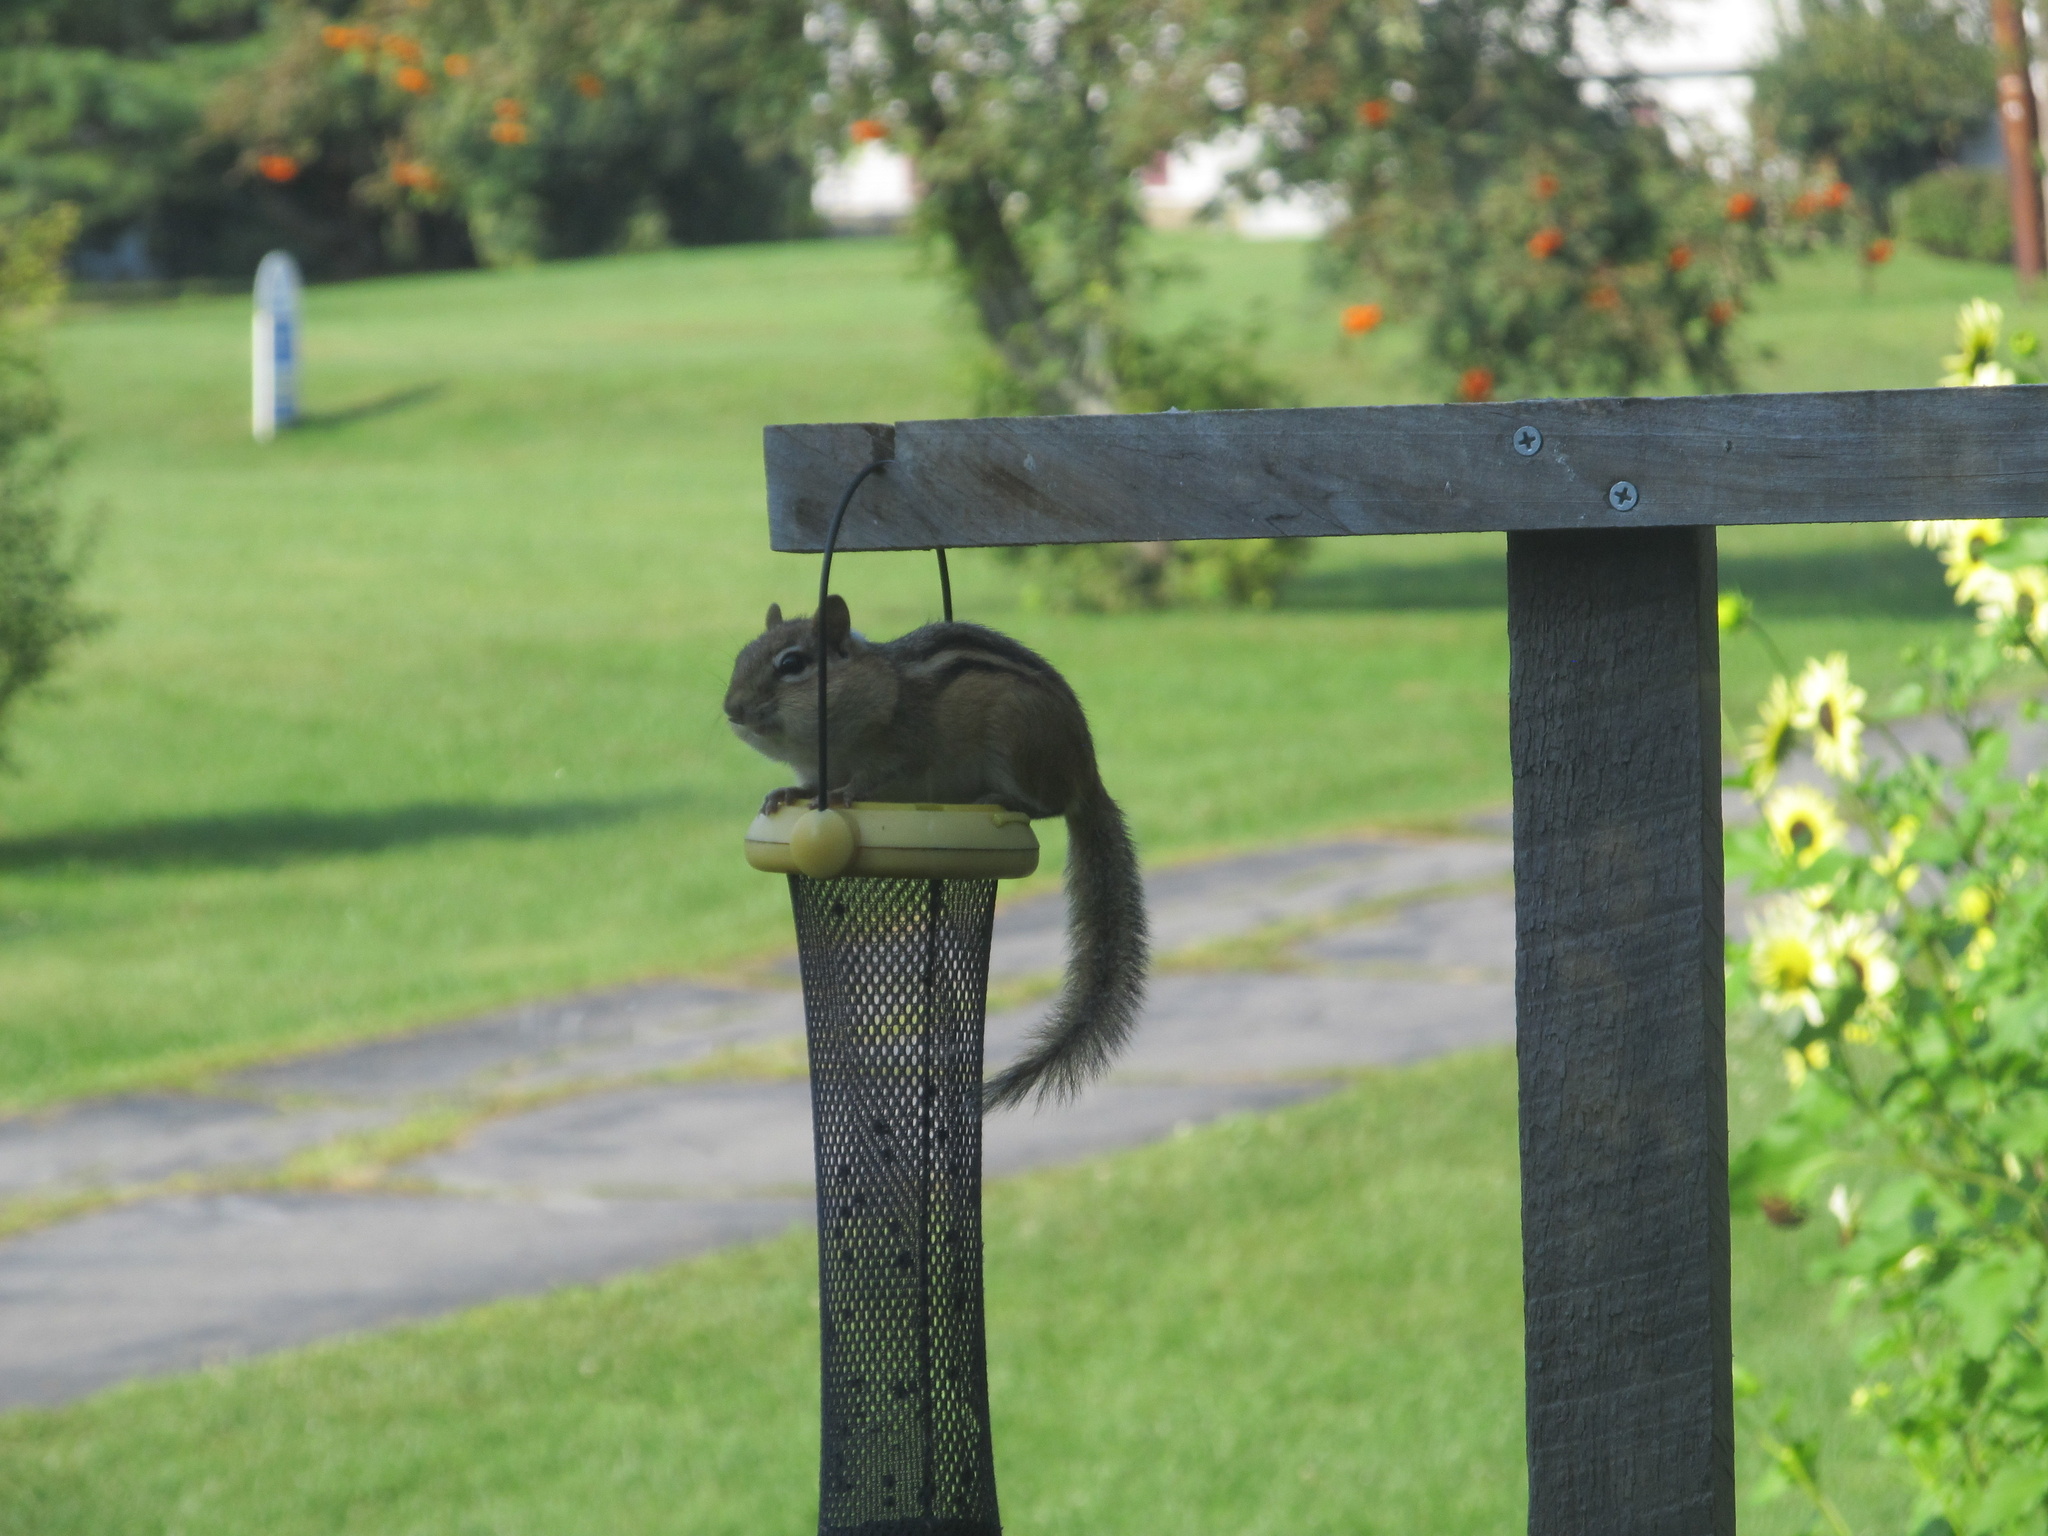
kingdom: Animalia
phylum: Chordata
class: Mammalia
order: Rodentia
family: Sciuridae
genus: Tamias
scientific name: Tamias striatus
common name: Eastern chipmunk
